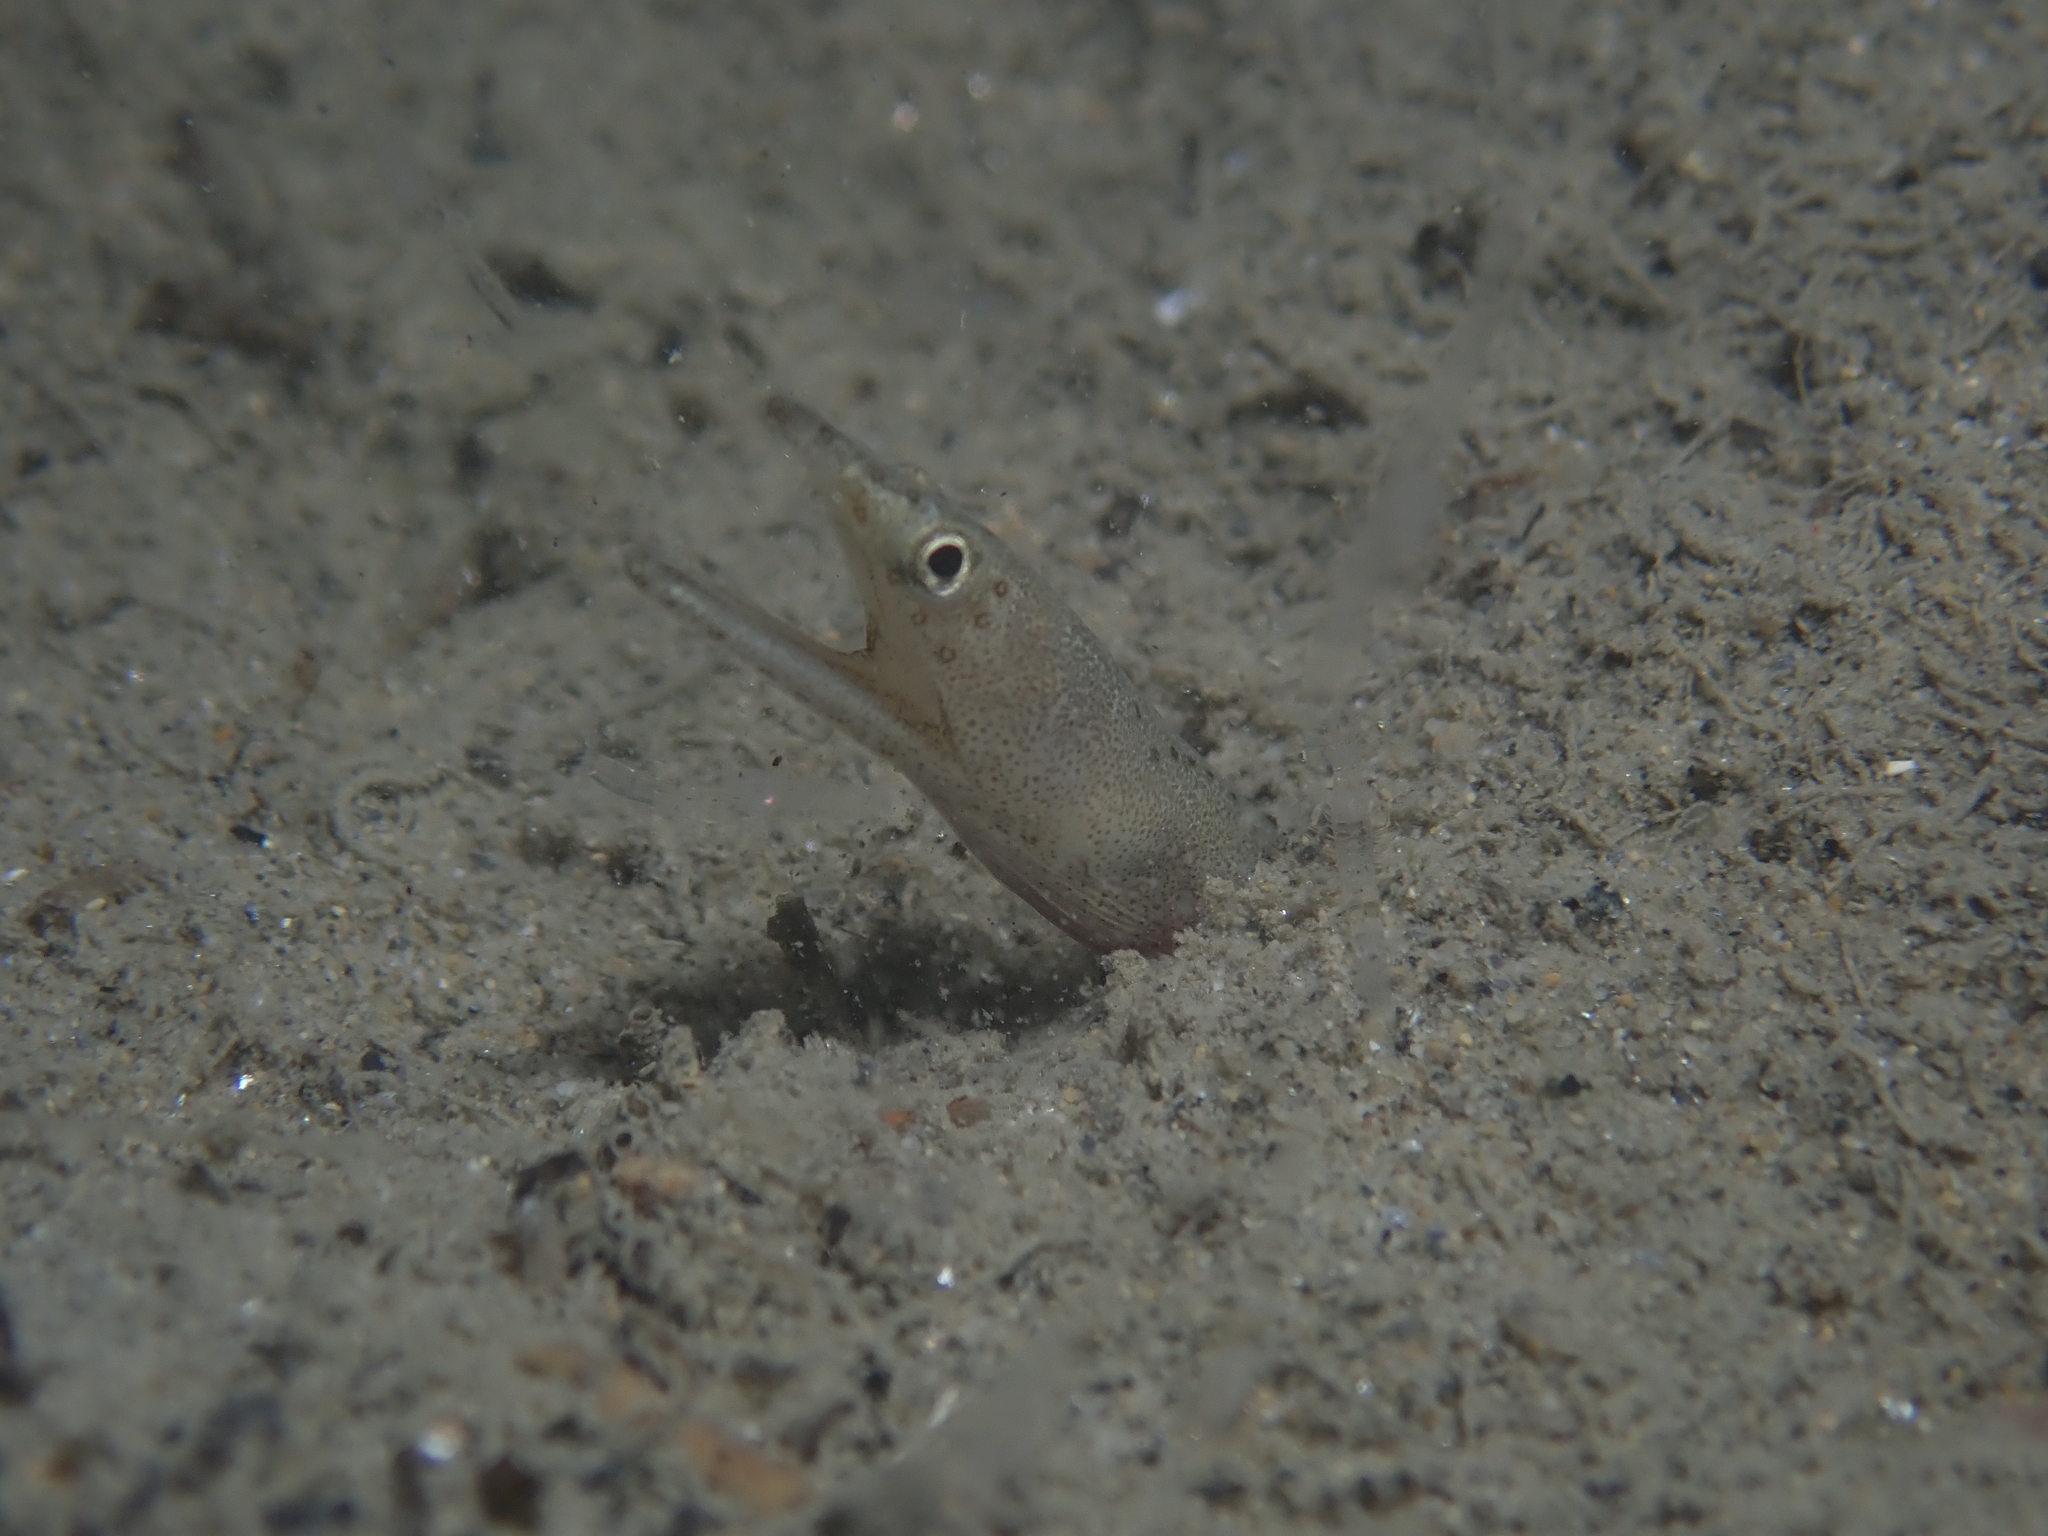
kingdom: Animalia
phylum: Chordata
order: Anguilliformes
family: Ophichthidae
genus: Ophisurus
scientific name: Ophisurus serpens
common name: Serpent eel
